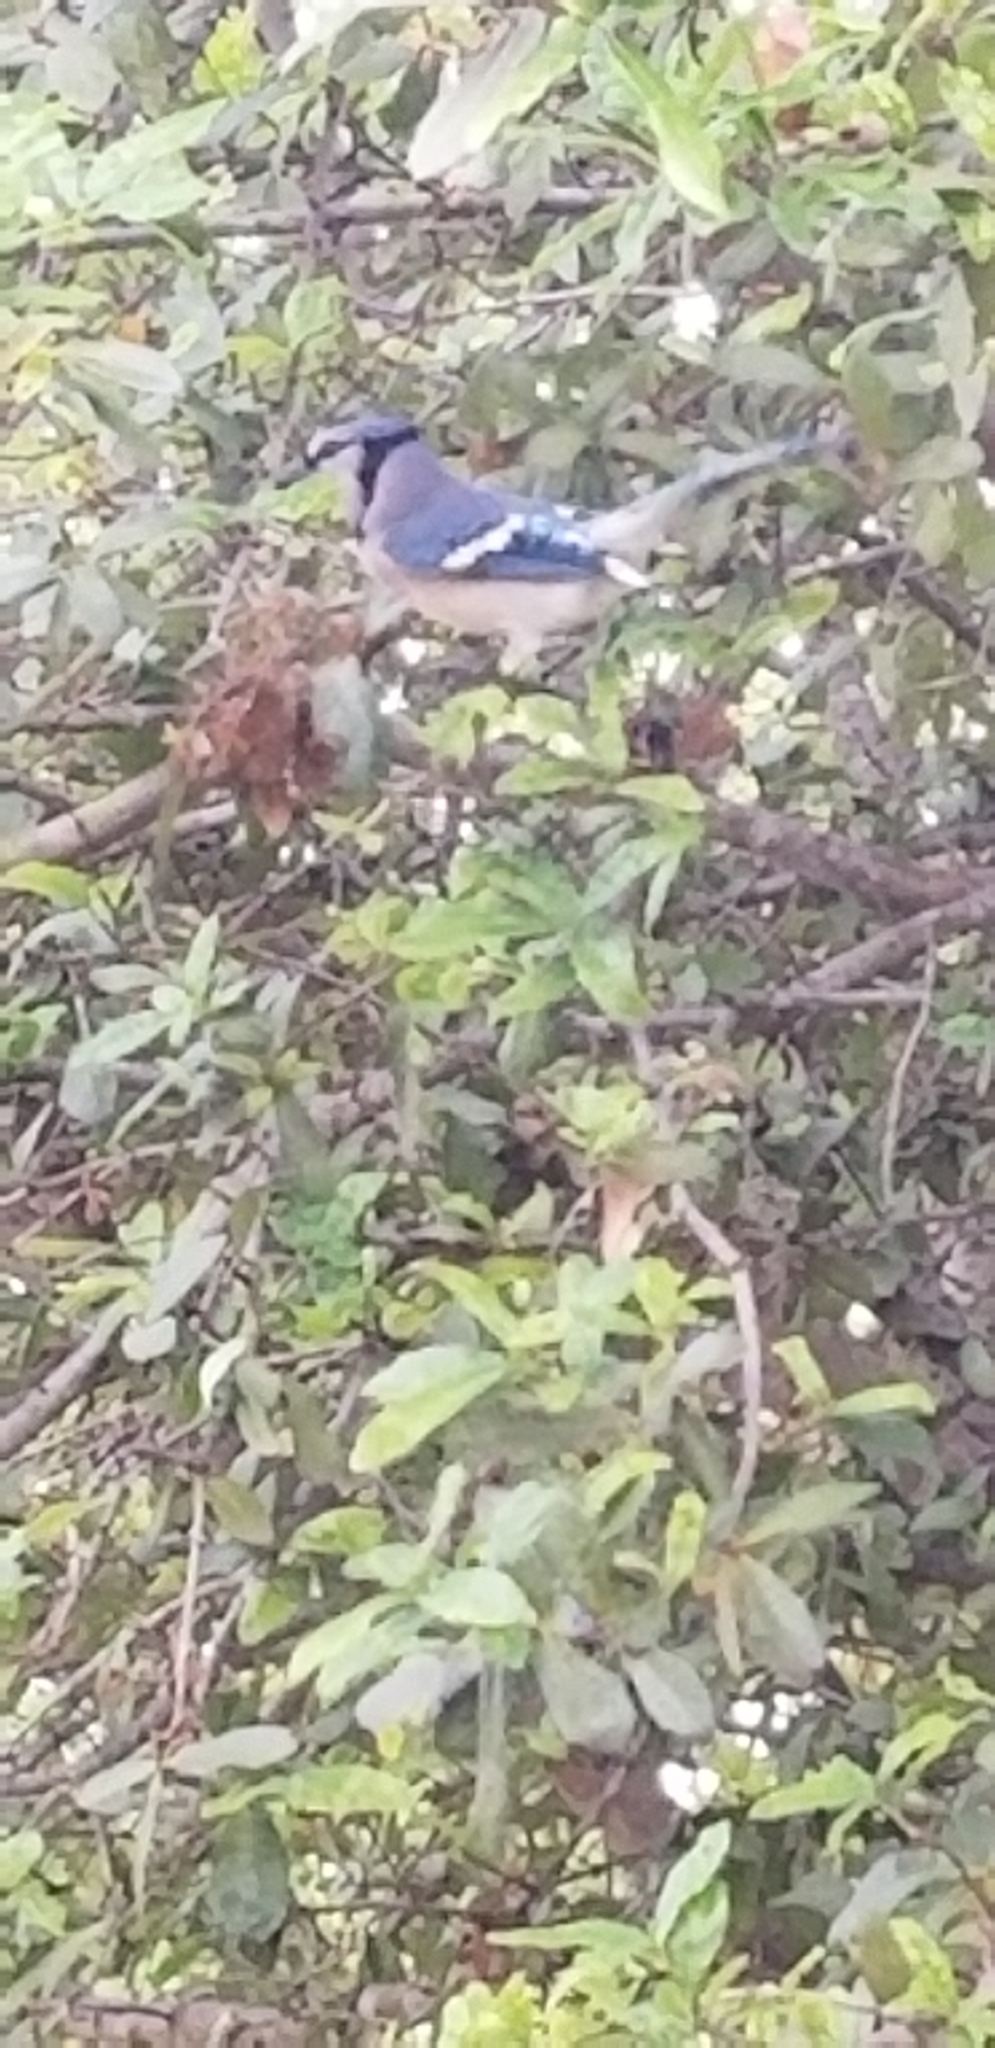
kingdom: Animalia
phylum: Chordata
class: Aves
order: Passeriformes
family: Corvidae
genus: Cyanocitta
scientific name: Cyanocitta cristata
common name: Blue jay
